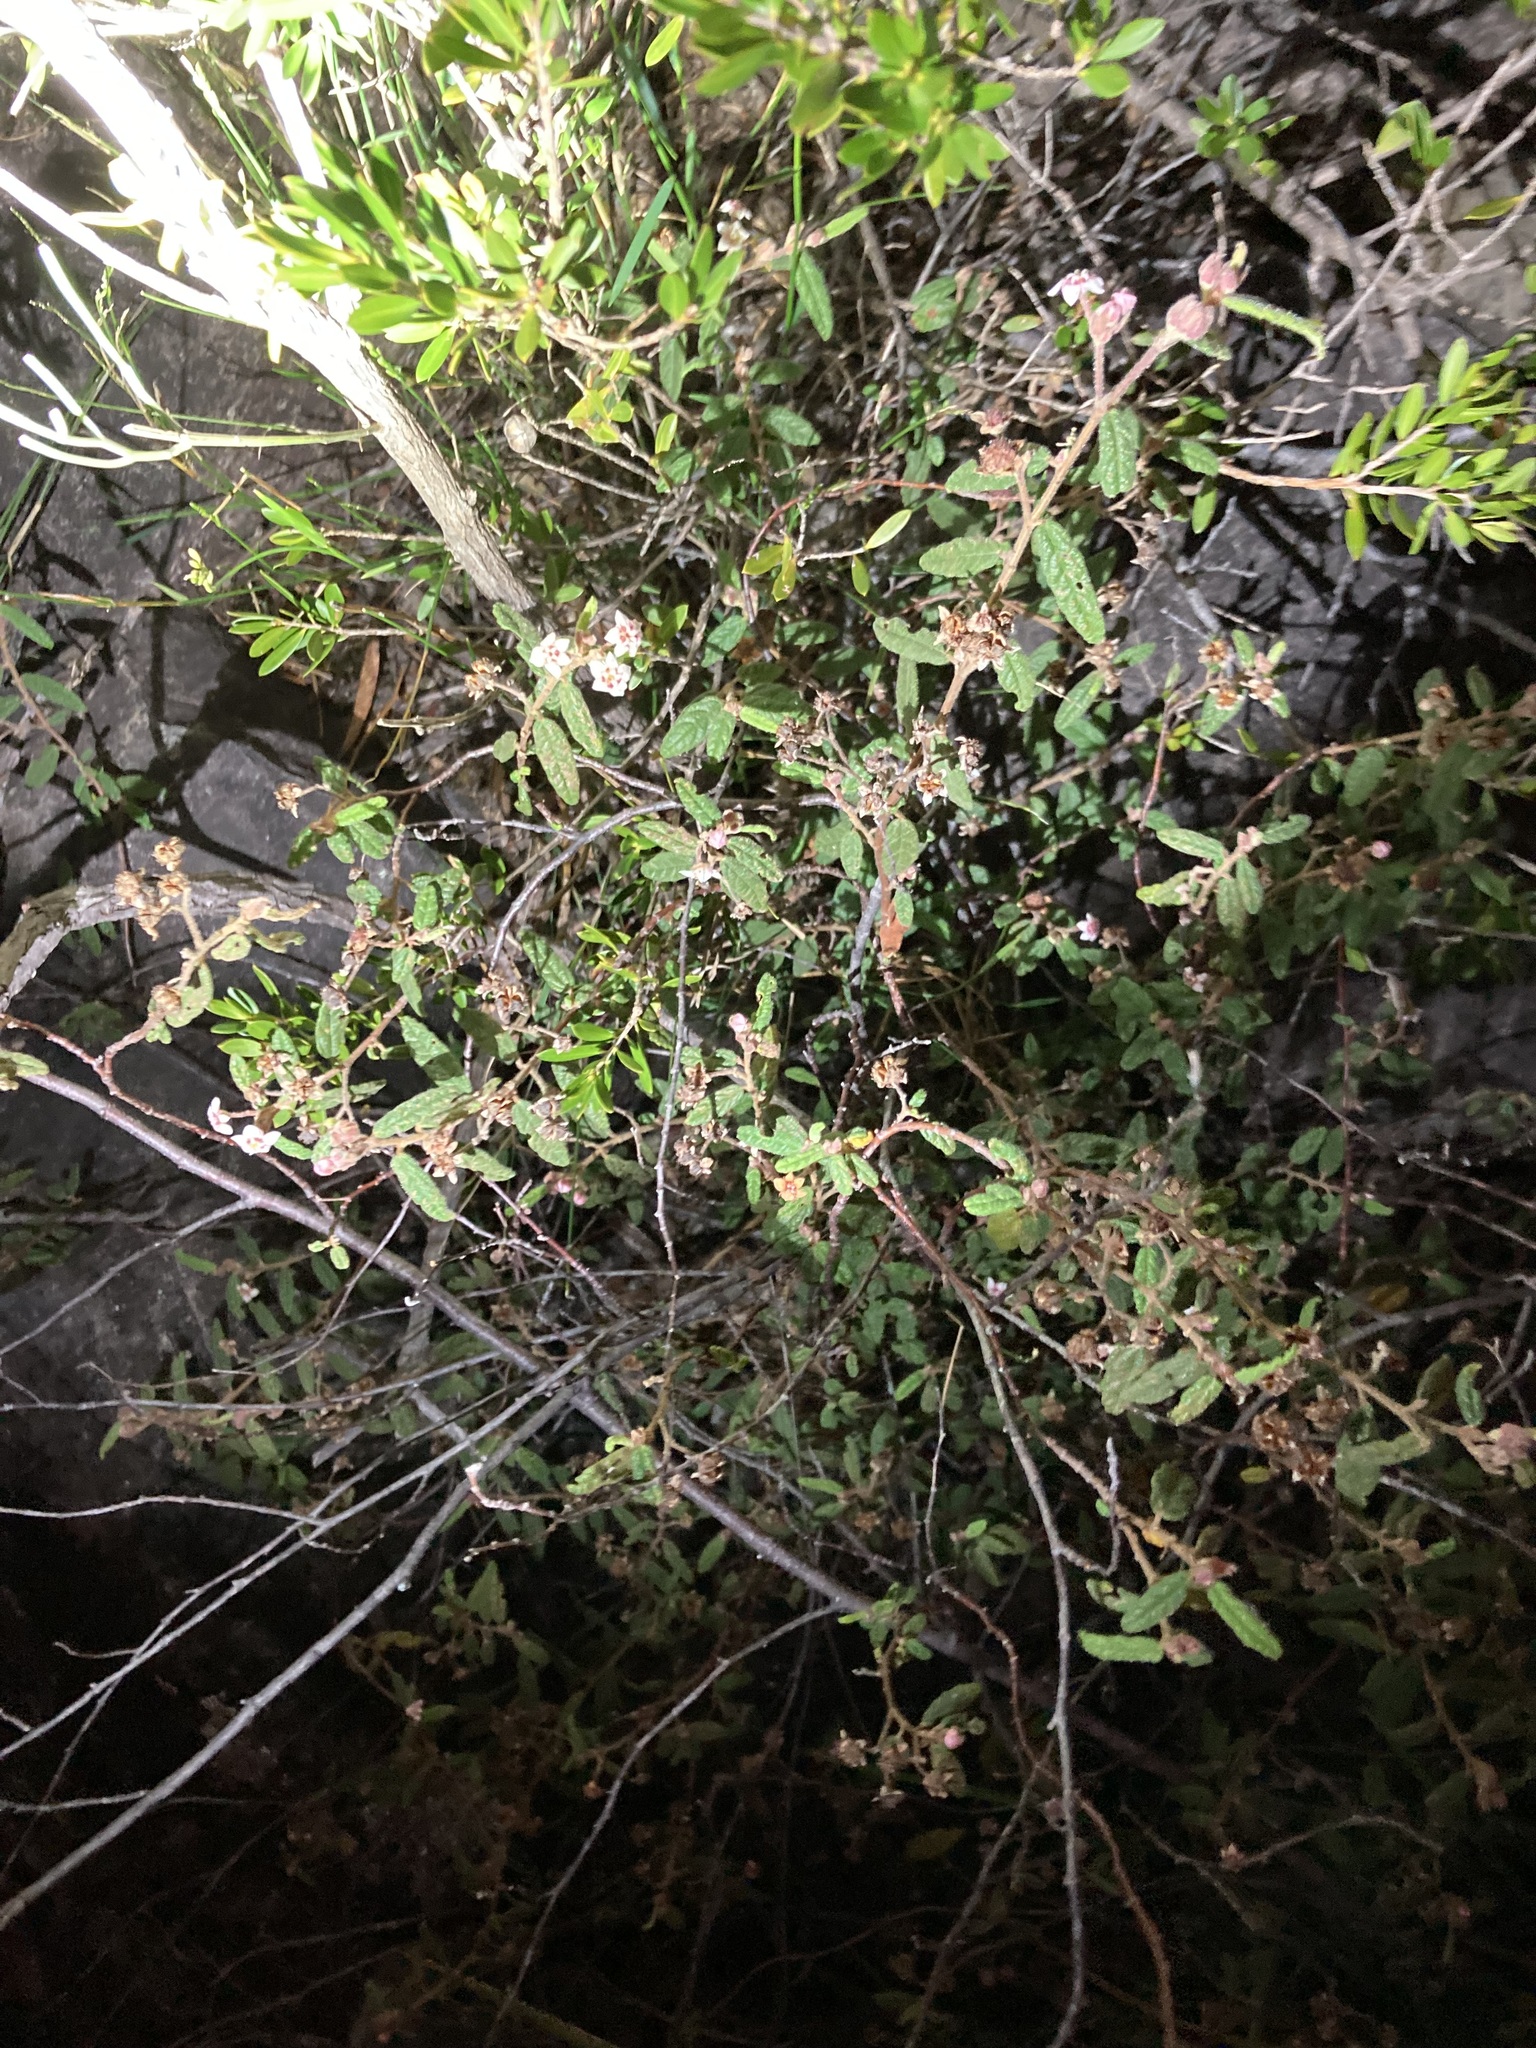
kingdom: Plantae
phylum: Tracheophyta
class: Magnoliopsida
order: Malvales
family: Malvaceae
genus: Commersonia
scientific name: Commersonia breviseta
